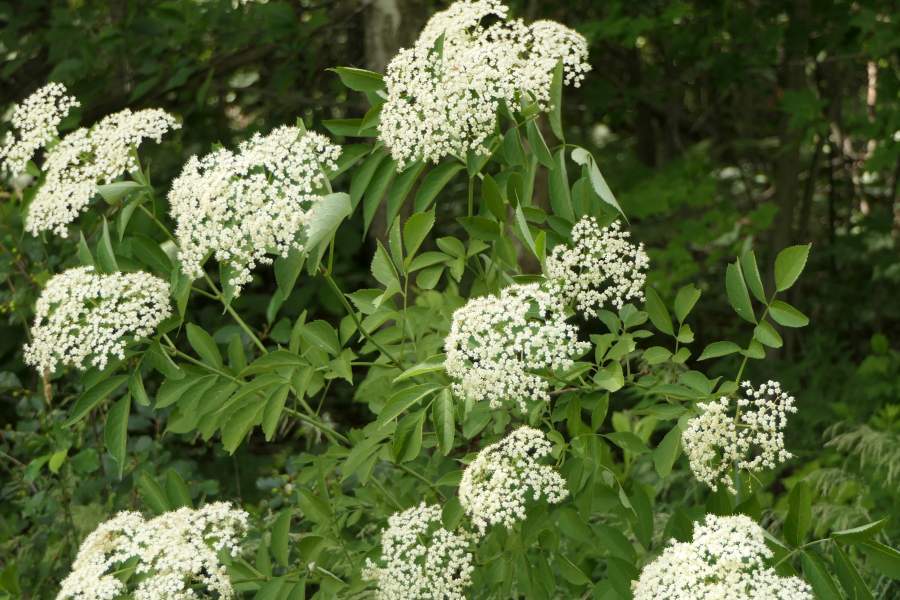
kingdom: Plantae
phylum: Tracheophyta
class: Magnoliopsida
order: Dipsacales
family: Viburnaceae
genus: Sambucus
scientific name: Sambucus canadensis
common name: American elder
